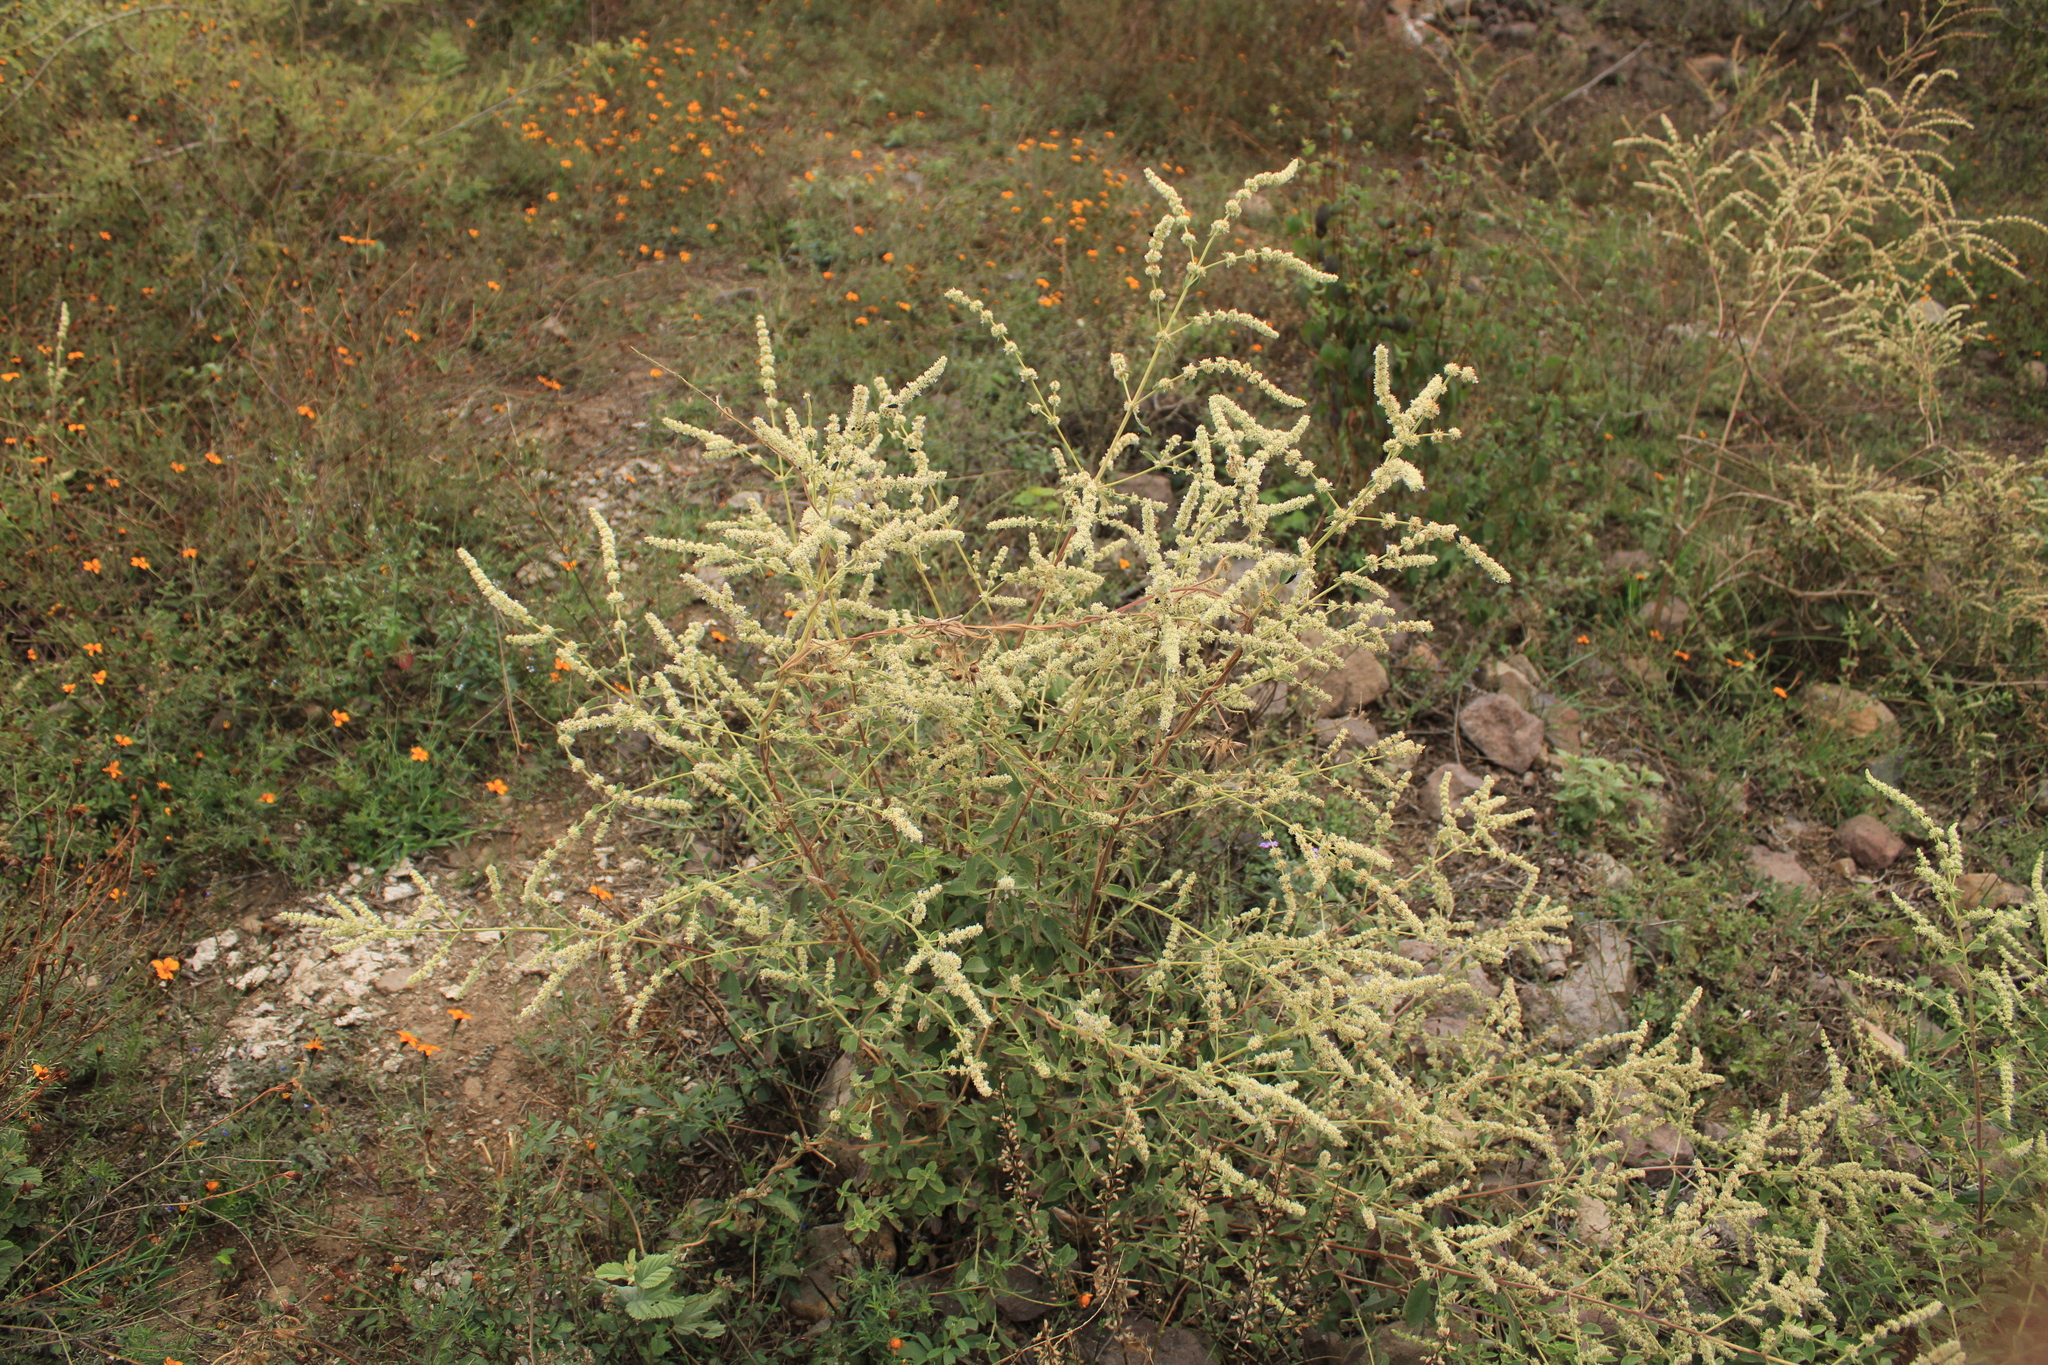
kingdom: Plantae
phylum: Tracheophyta
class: Magnoliopsida
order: Lamiales
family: Lamiaceae
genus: Asterohyptis
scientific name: Asterohyptis stellulata
